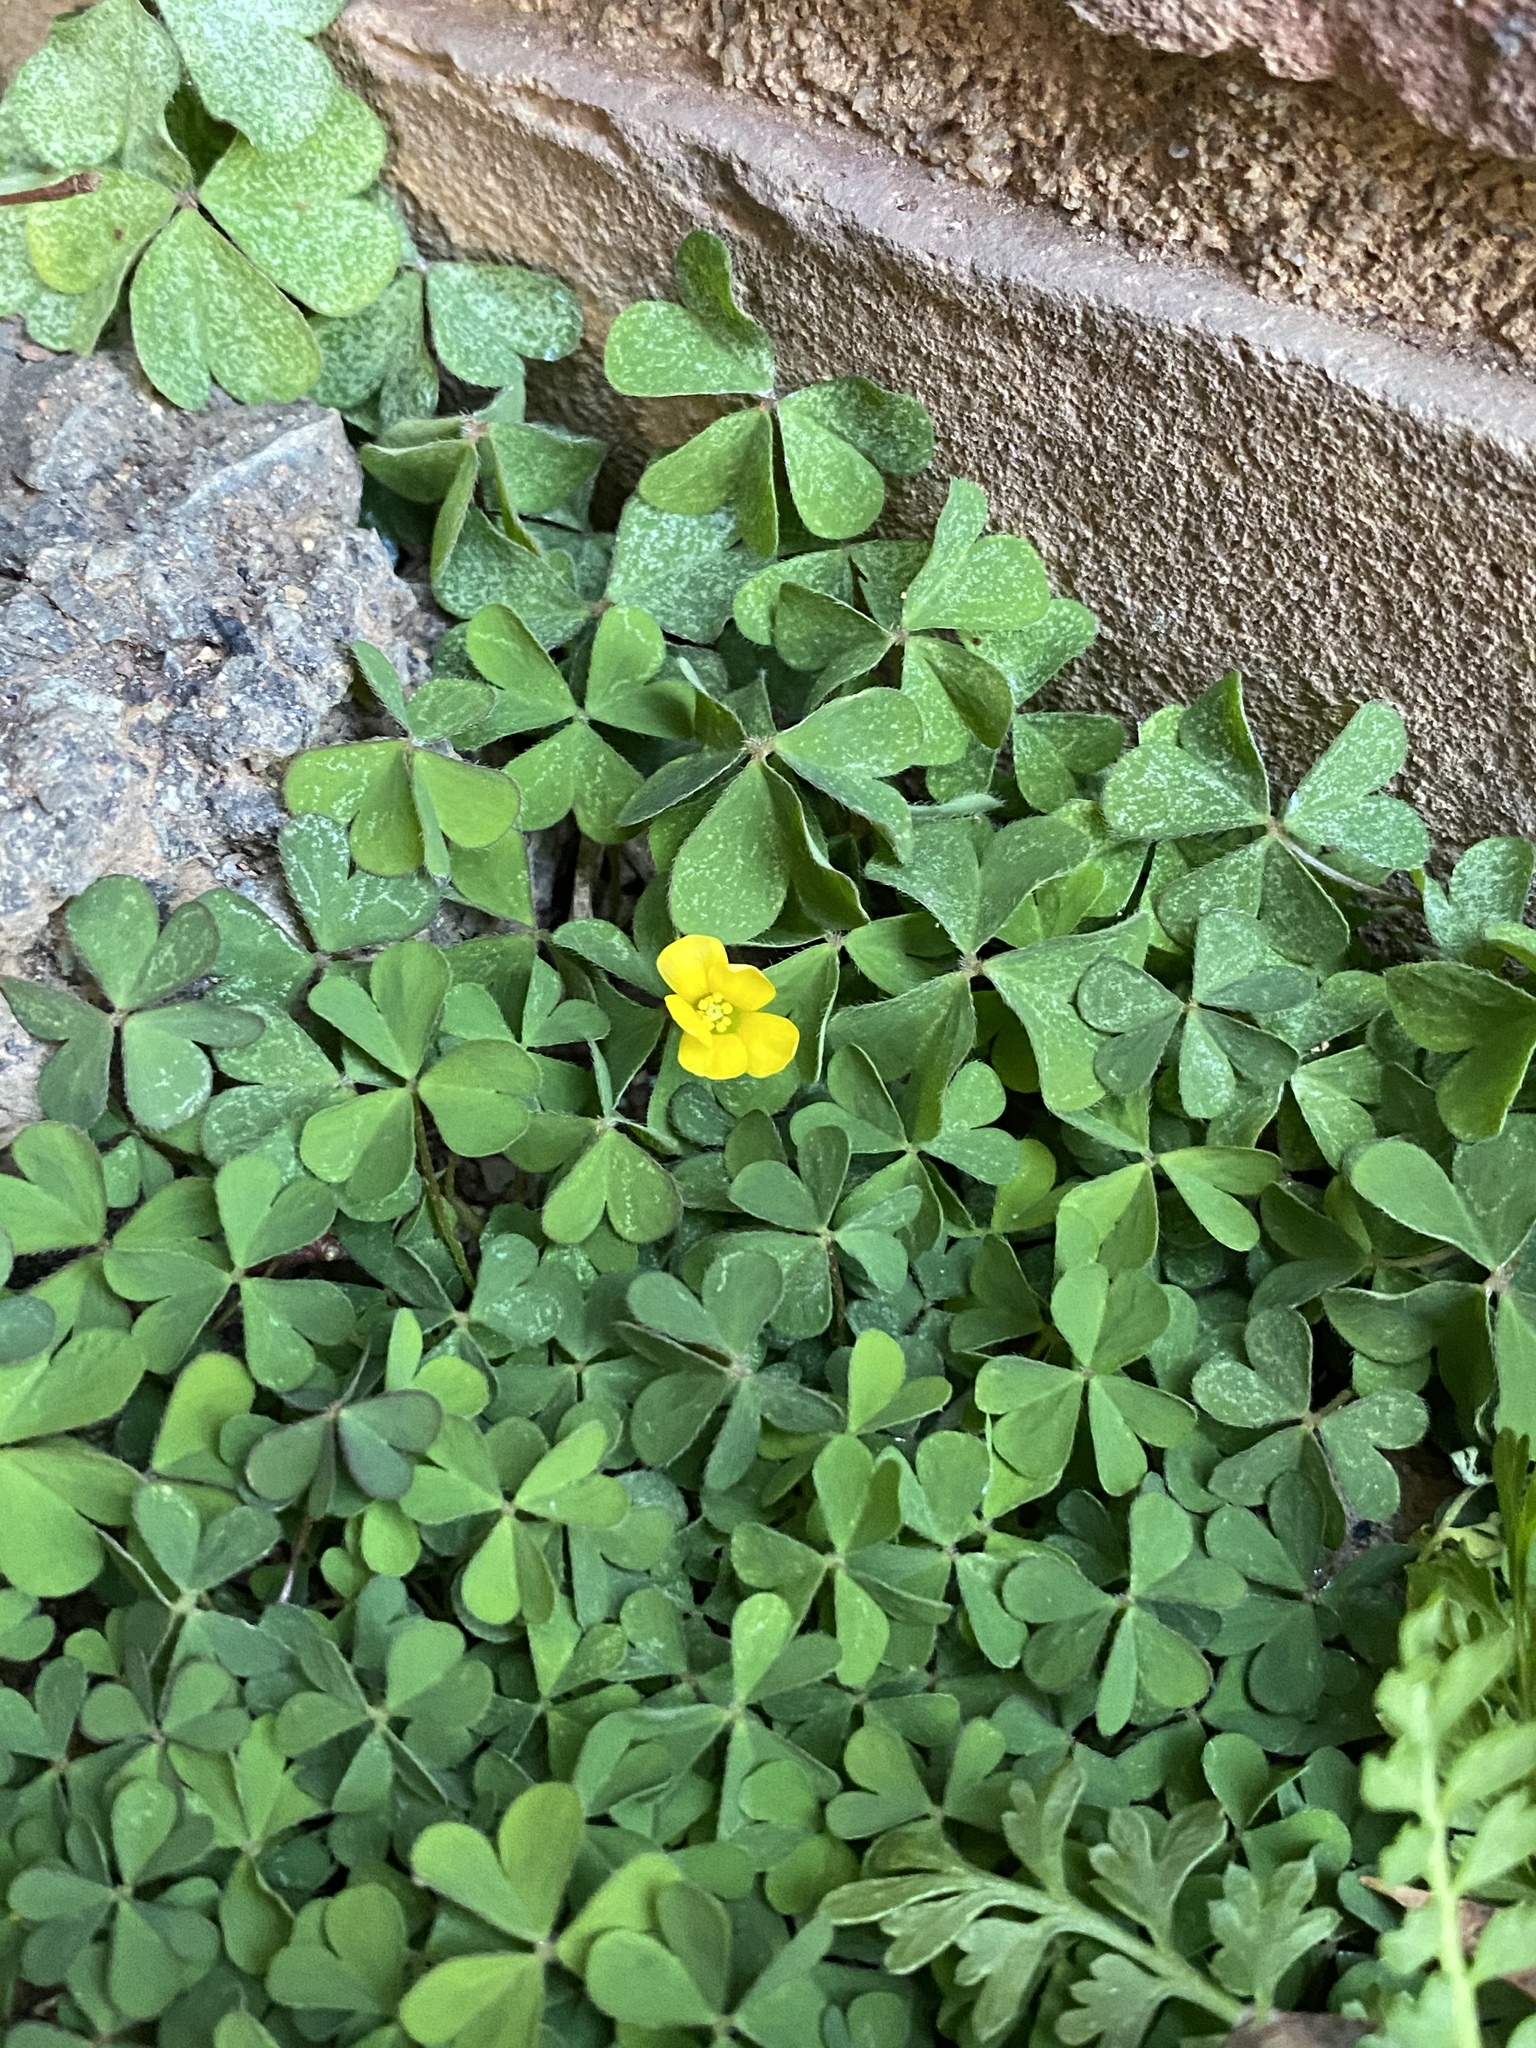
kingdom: Plantae
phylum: Tracheophyta
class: Magnoliopsida
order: Oxalidales
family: Oxalidaceae
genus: Oxalis
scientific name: Oxalis corniculata
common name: Procumbent yellow-sorrel
